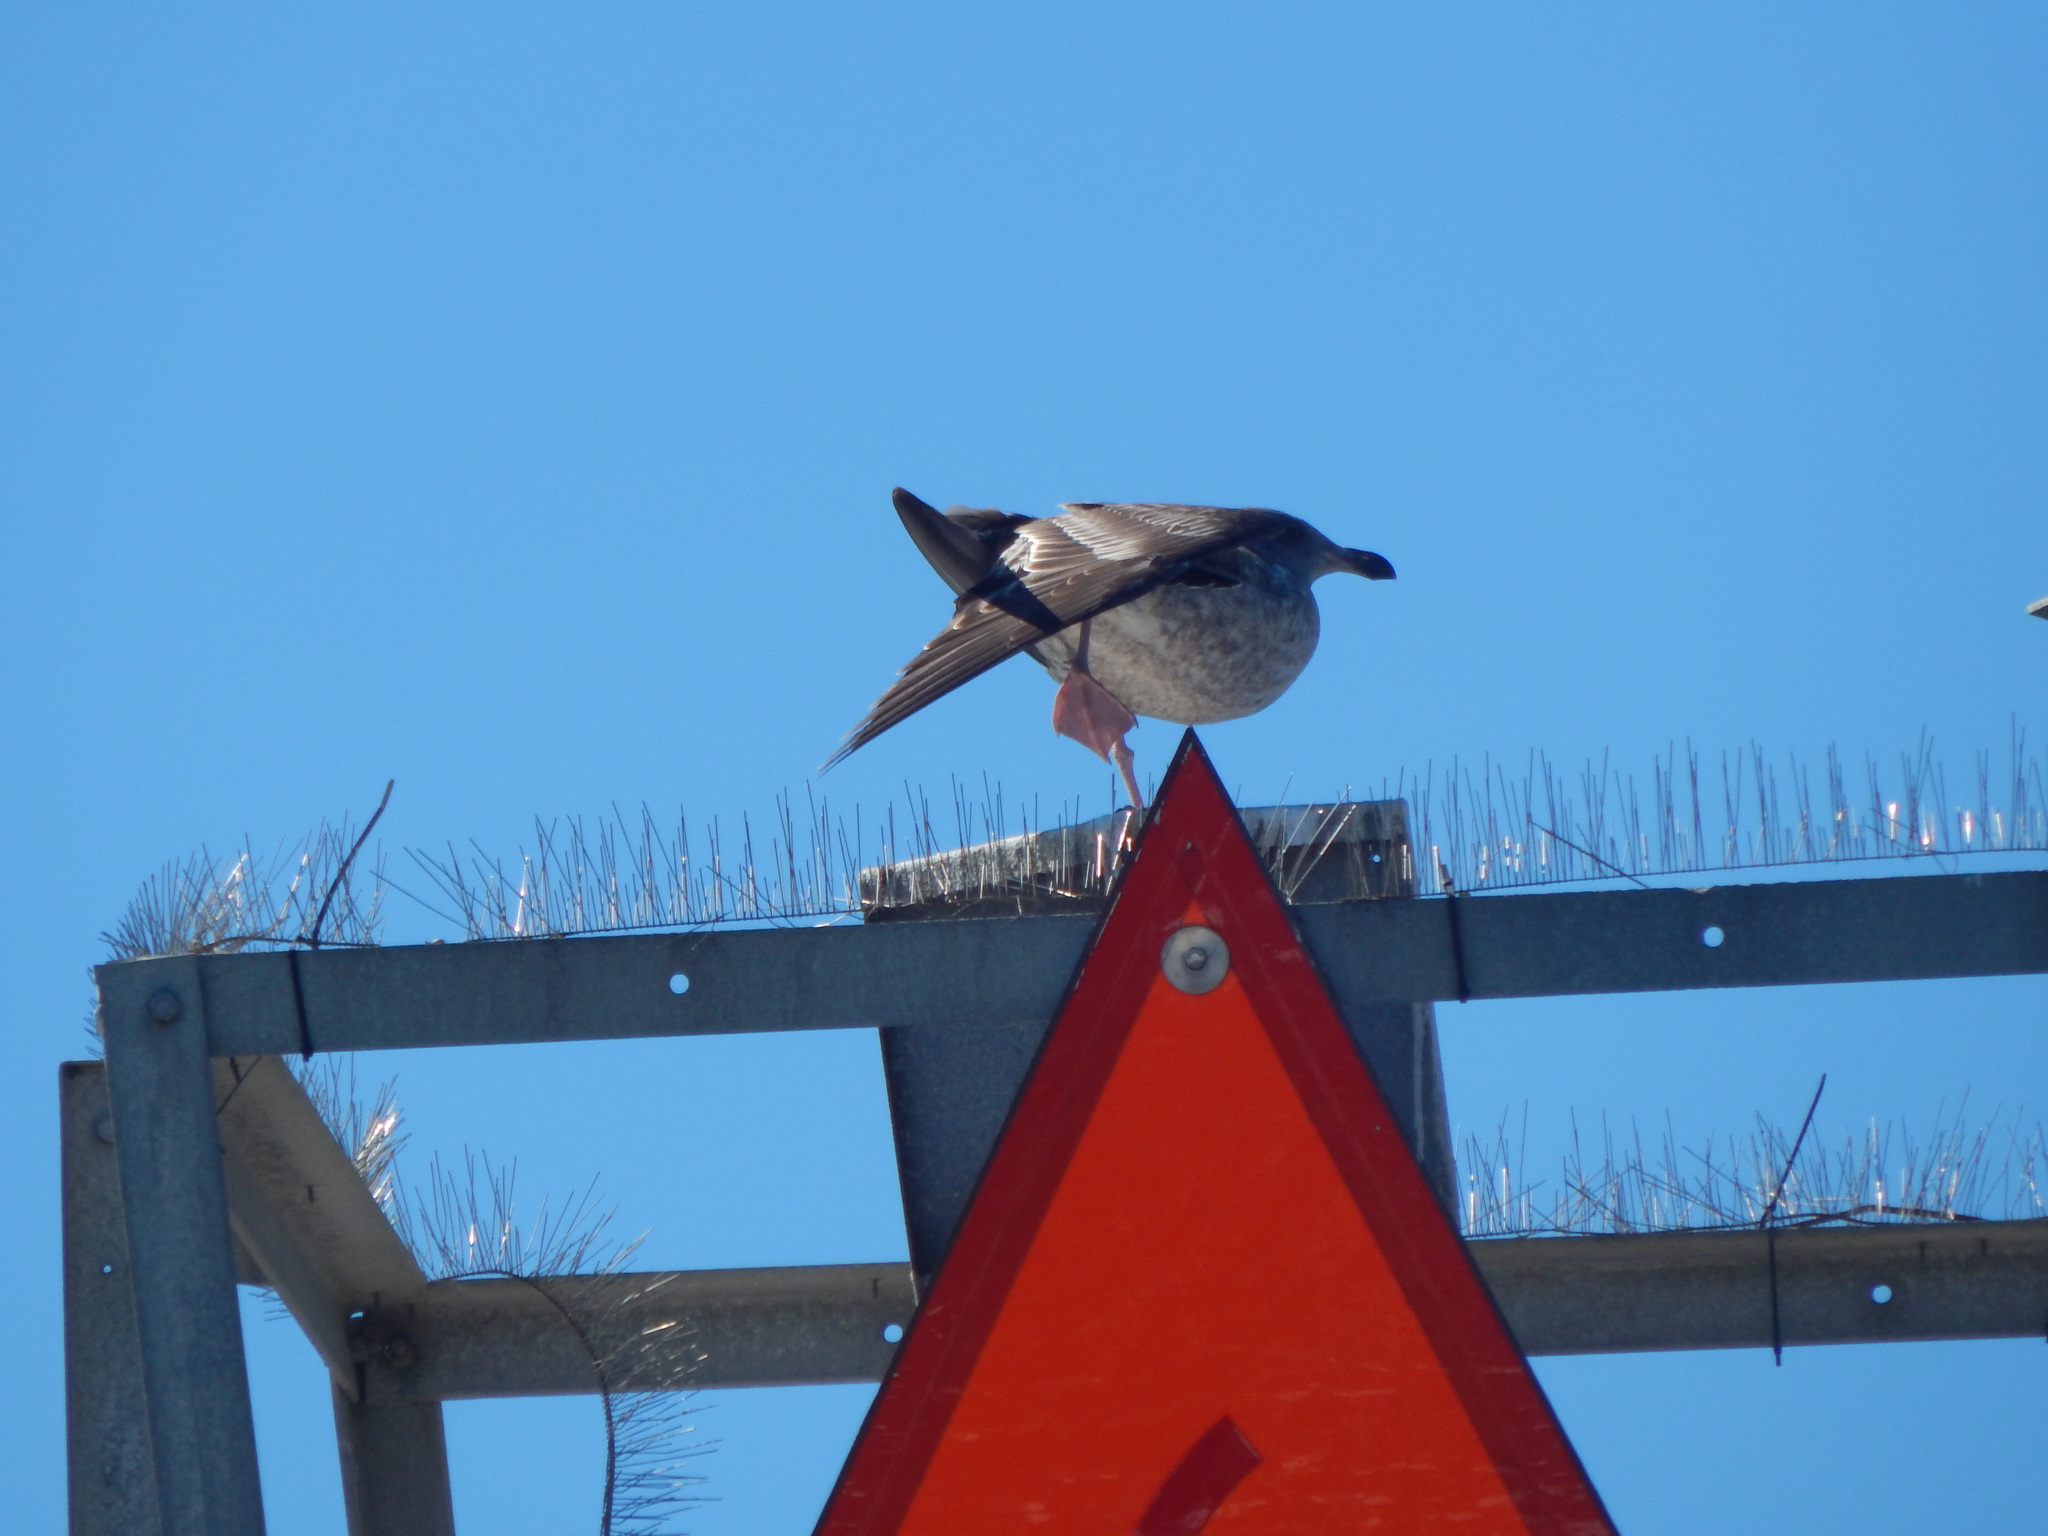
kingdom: Animalia
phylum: Chordata
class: Aves
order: Charadriiformes
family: Laridae
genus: Larus
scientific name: Larus occidentalis
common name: Western gull
